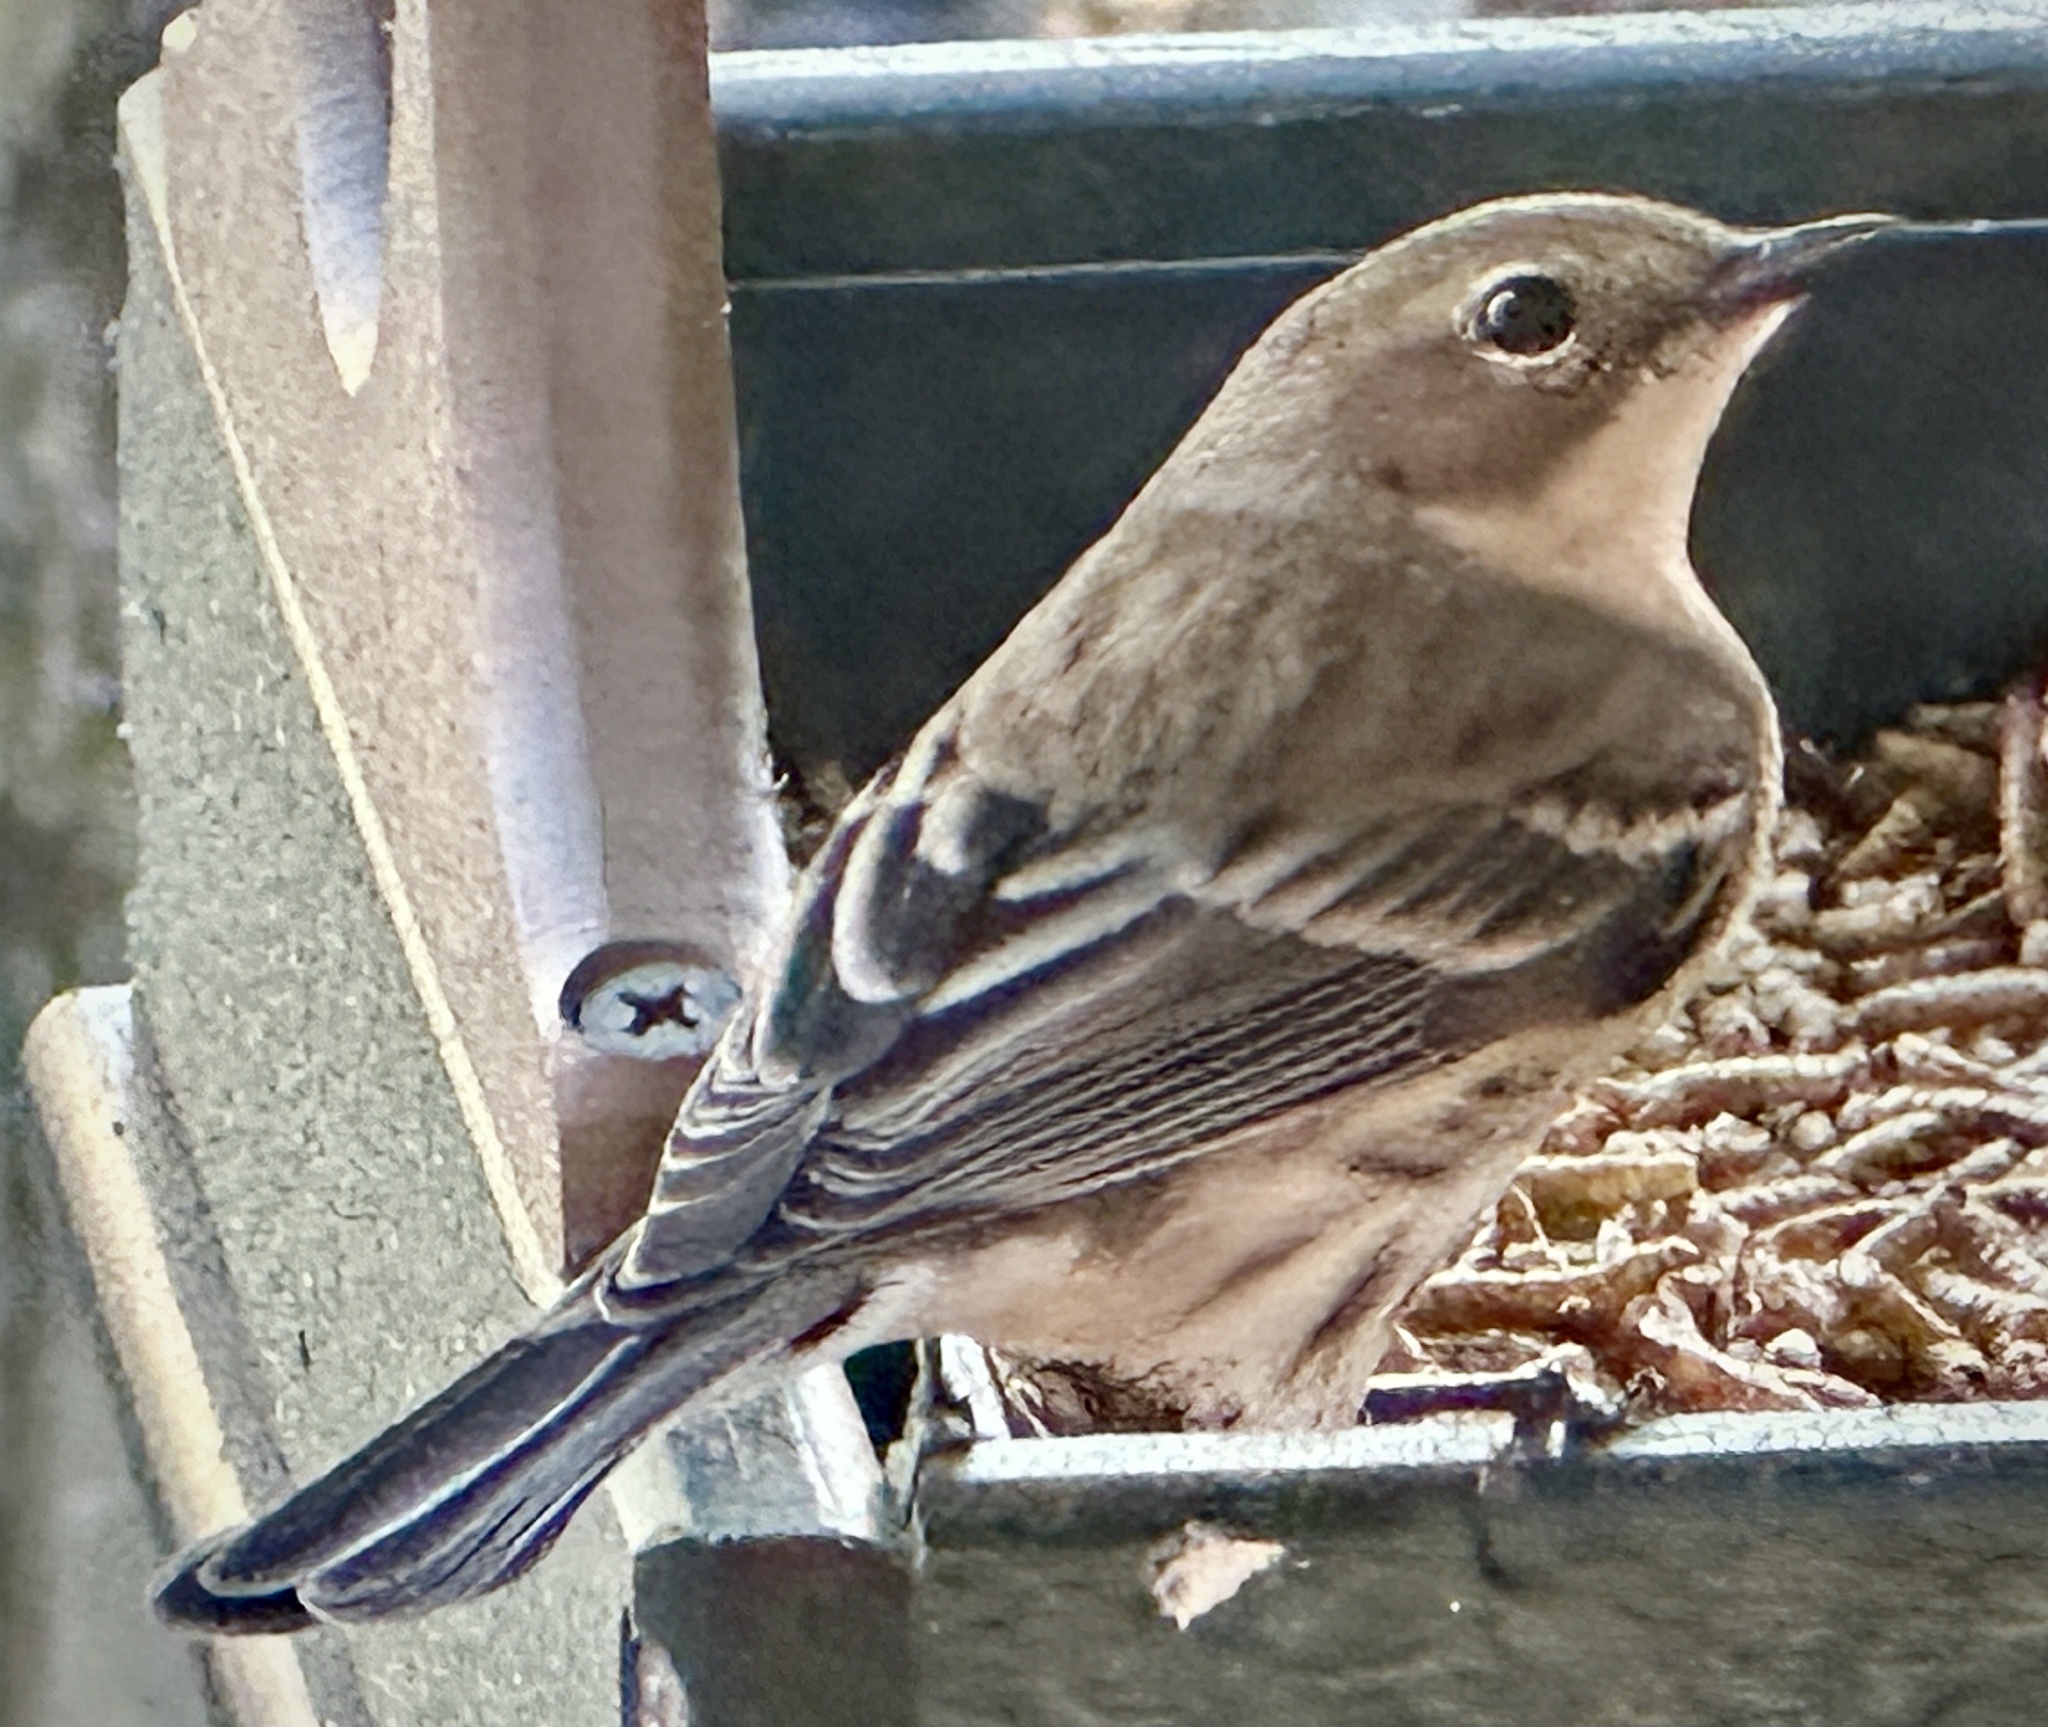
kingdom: Animalia
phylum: Chordata
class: Aves
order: Passeriformes
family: Parulidae
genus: Setophaga
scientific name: Setophaga coronata
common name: Myrtle warbler
